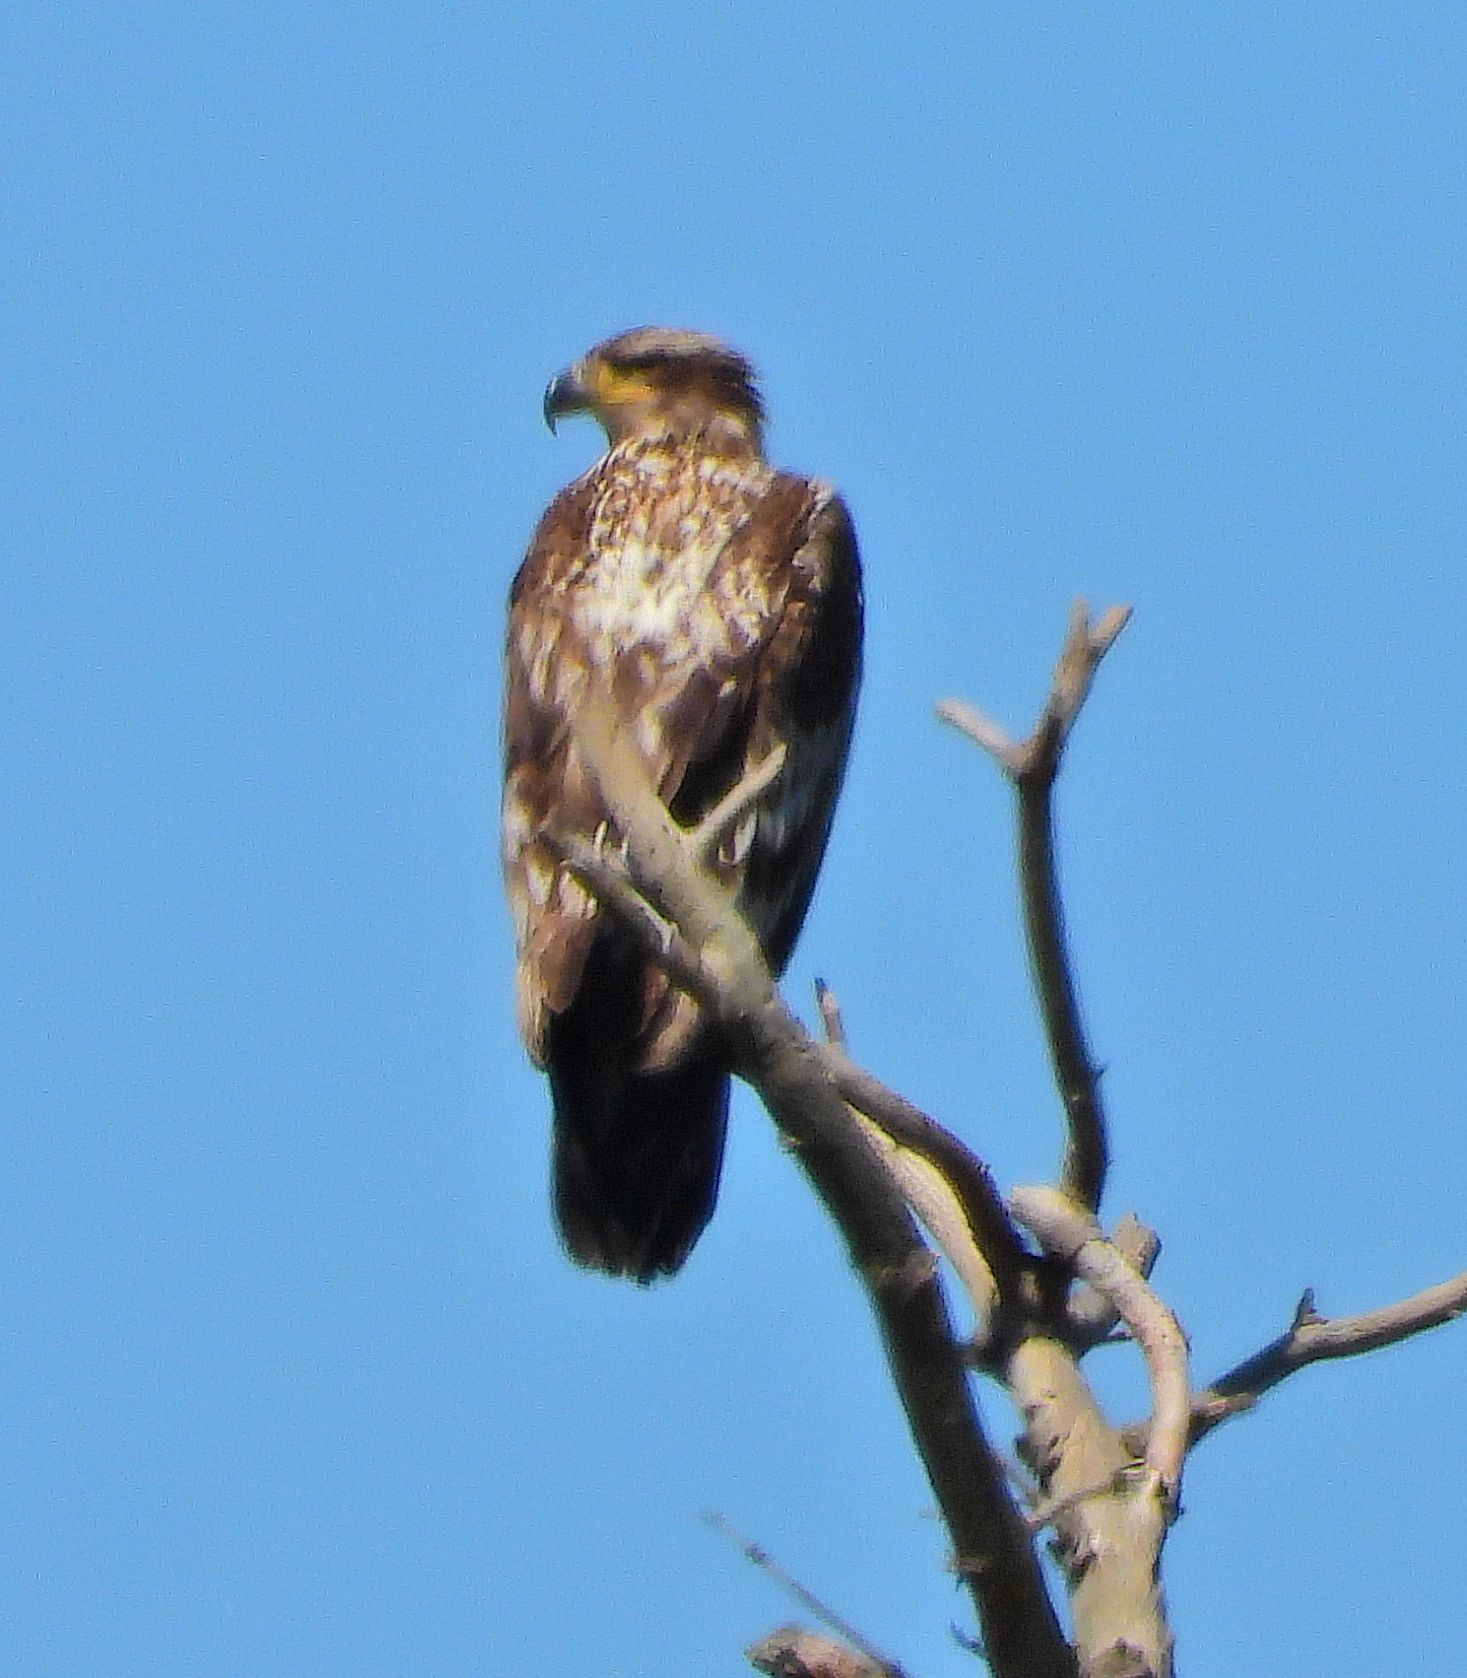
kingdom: Animalia
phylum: Chordata
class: Aves
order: Accipitriformes
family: Accipitridae
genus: Haliaeetus
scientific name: Haliaeetus leucocephalus
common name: Bald eagle
